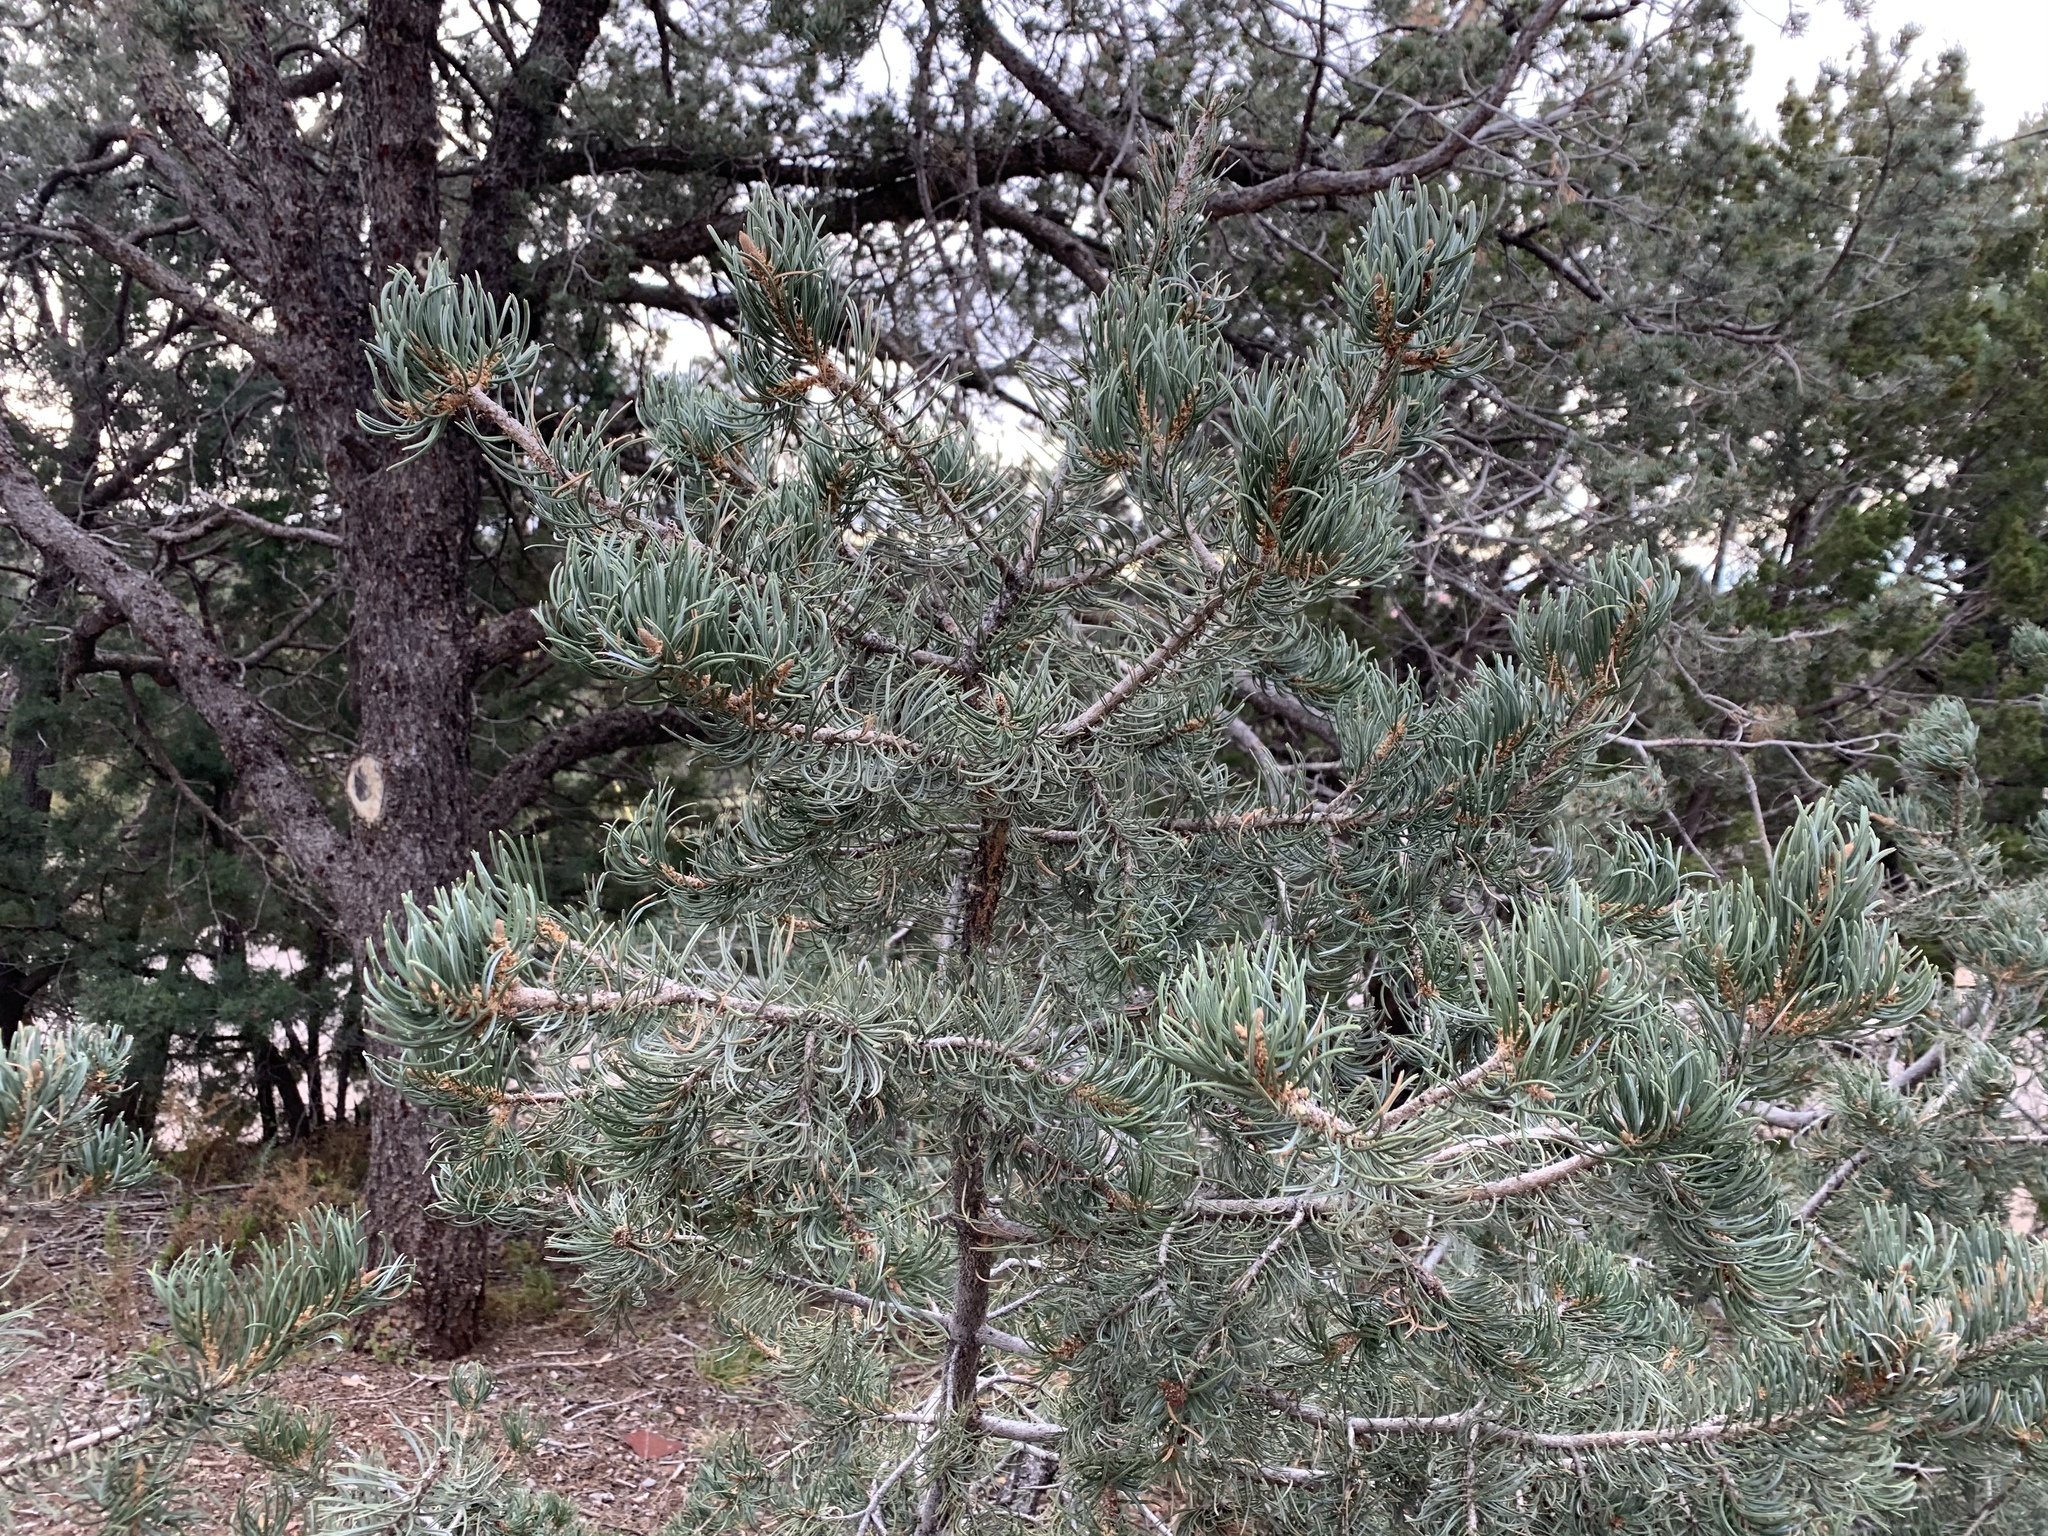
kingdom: Plantae
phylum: Tracheophyta
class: Pinopsida
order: Pinales
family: Pinaceae
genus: Pinus
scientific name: Pinus edulis
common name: Colorado pinyon
